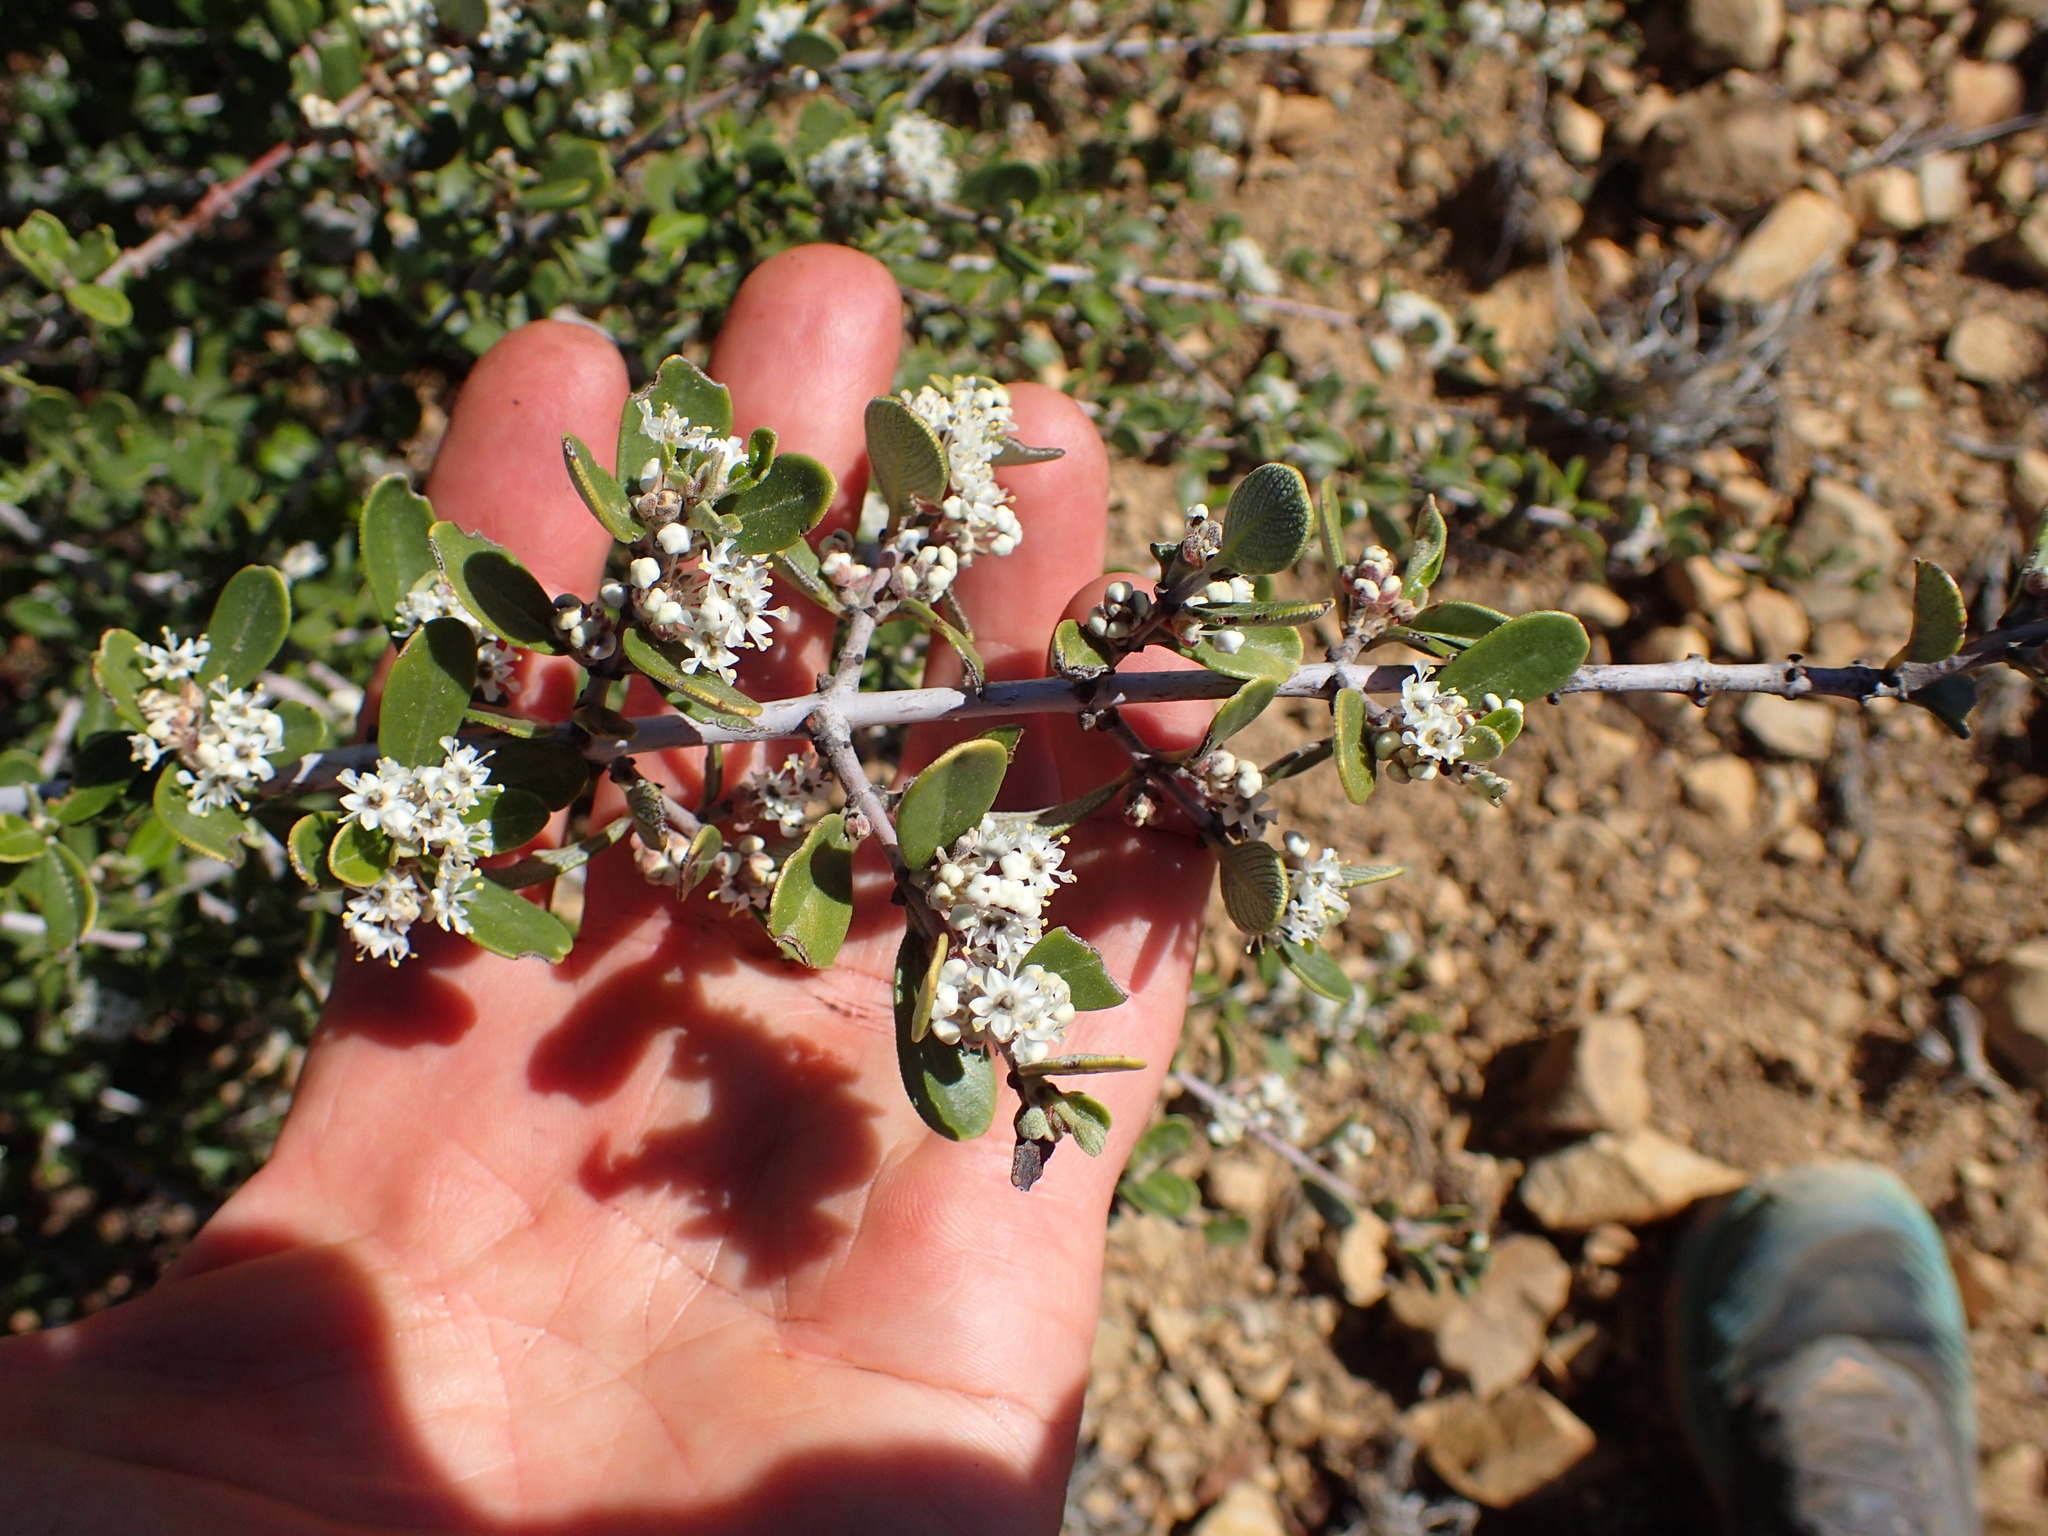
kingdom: Plantae
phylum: Tracheophyta
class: Magnoliopsida
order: Rosales
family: Rhamnaceae
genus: Ceanothus
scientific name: Ceanothus cuneatus
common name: Cuneate ceanothus
